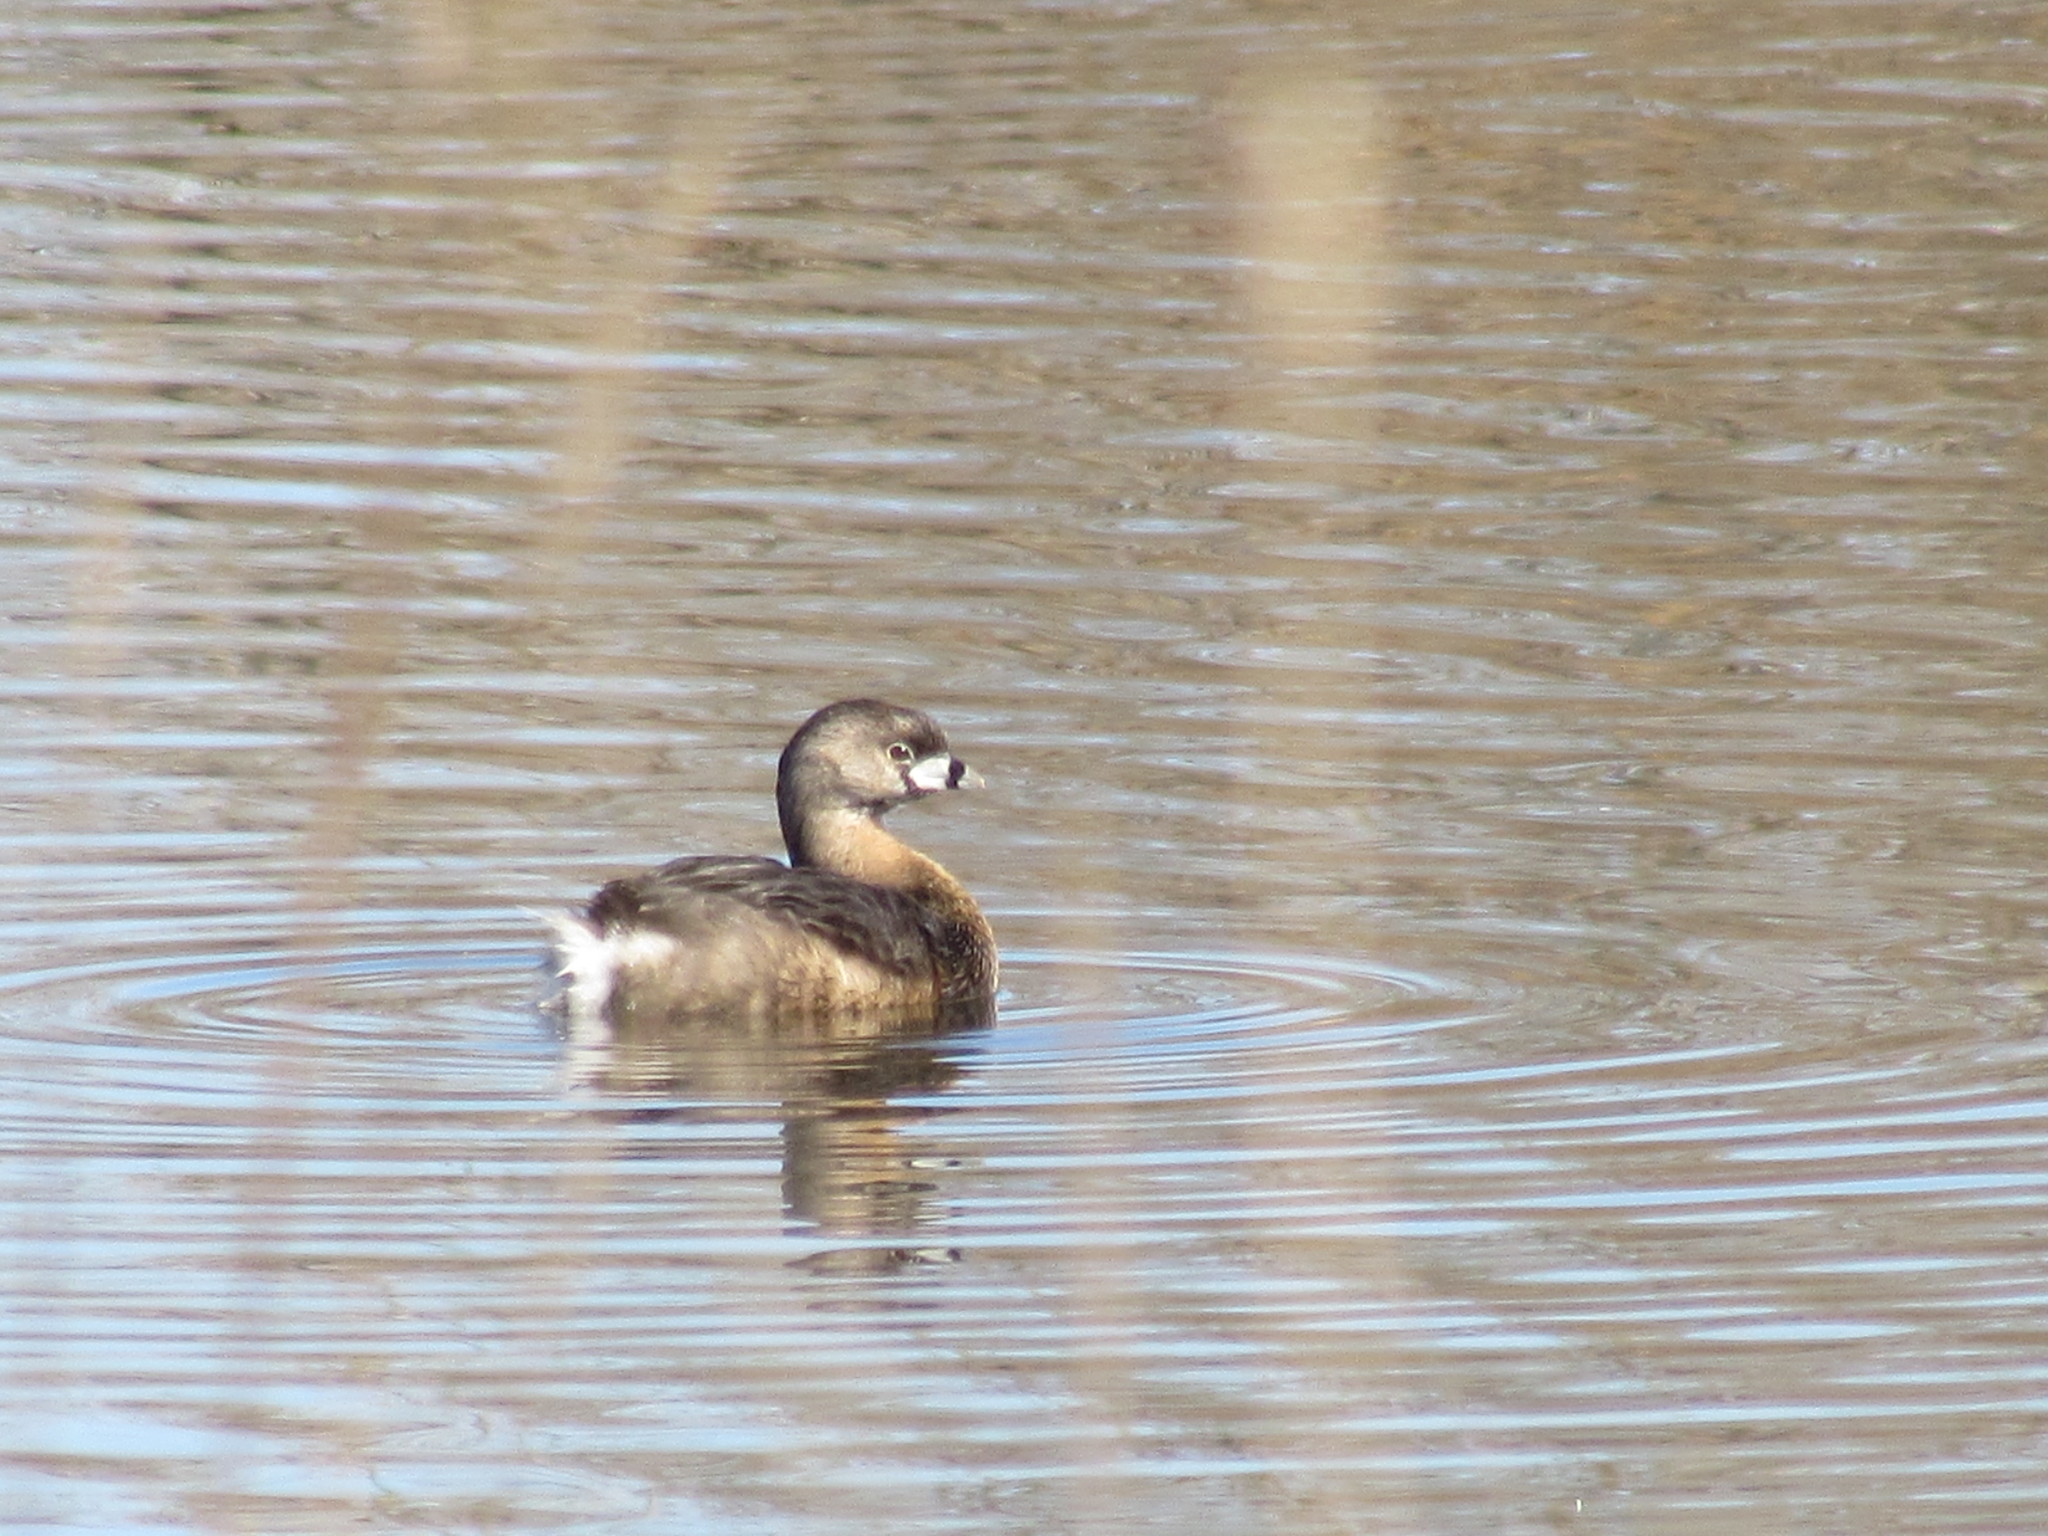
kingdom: Animalia
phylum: Chordata
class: Aves
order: Podicipediformes
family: Podicipedidae
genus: Podilymbus
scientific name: Podilymbus podiceps
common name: Pied-billed grebe
